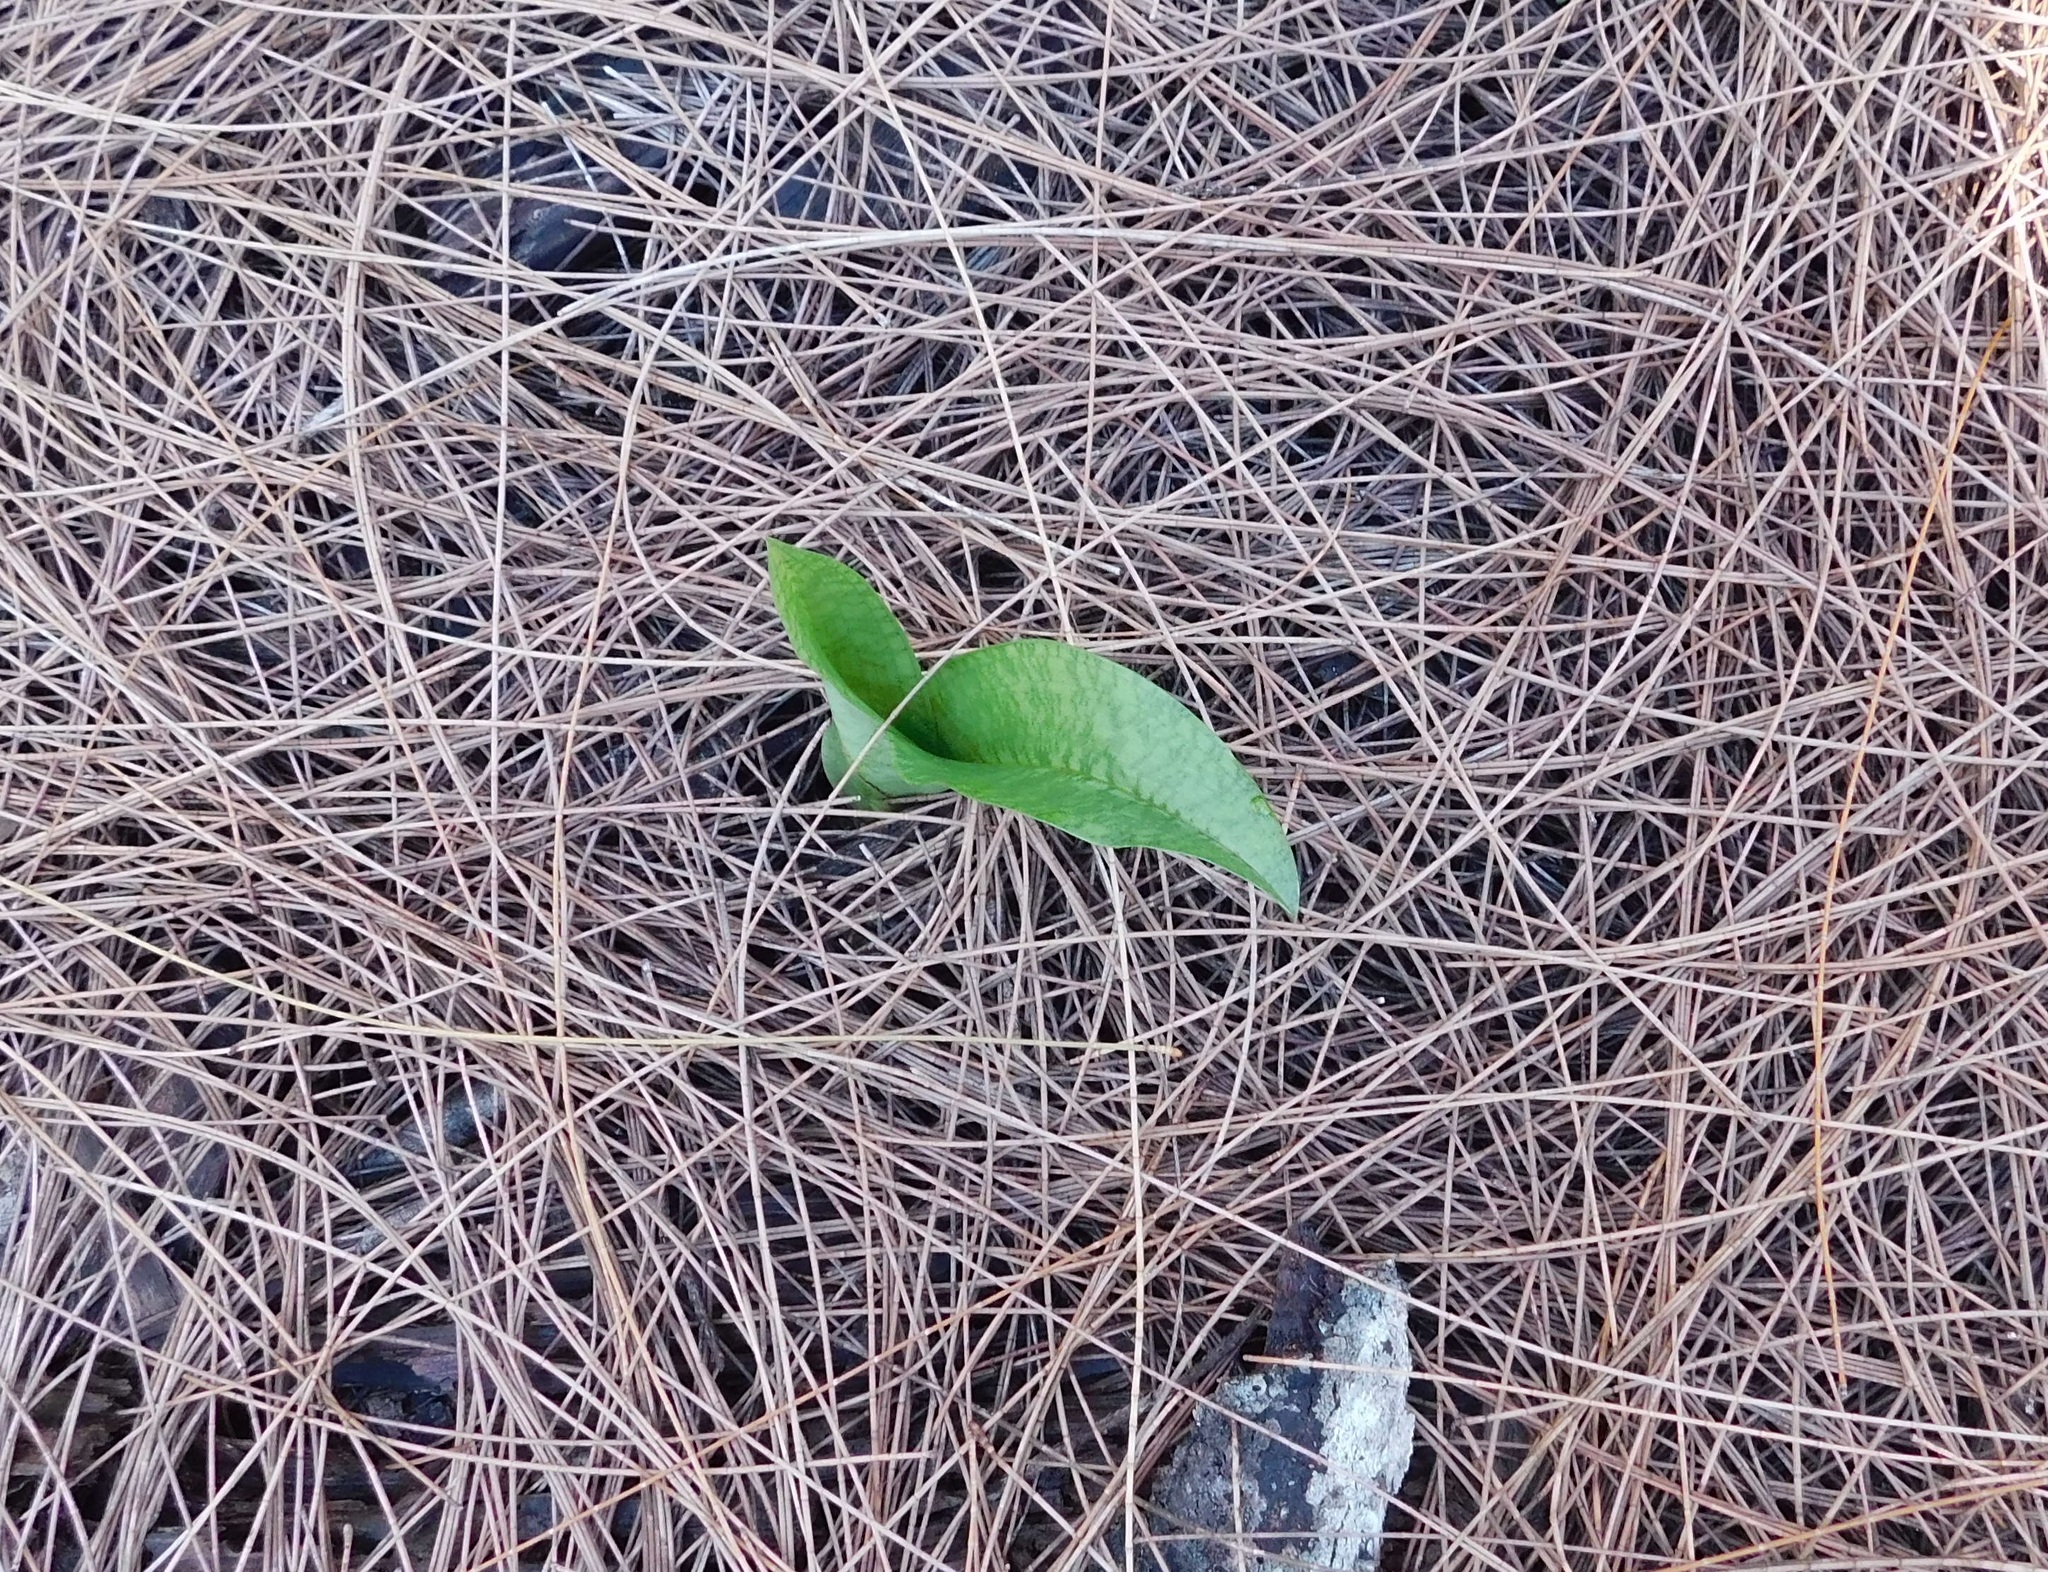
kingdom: Plantae
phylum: Tracheophyta
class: Liliopsida
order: Asparagales
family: Orchidaceae
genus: Eulophia
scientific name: Eulophia maculata
